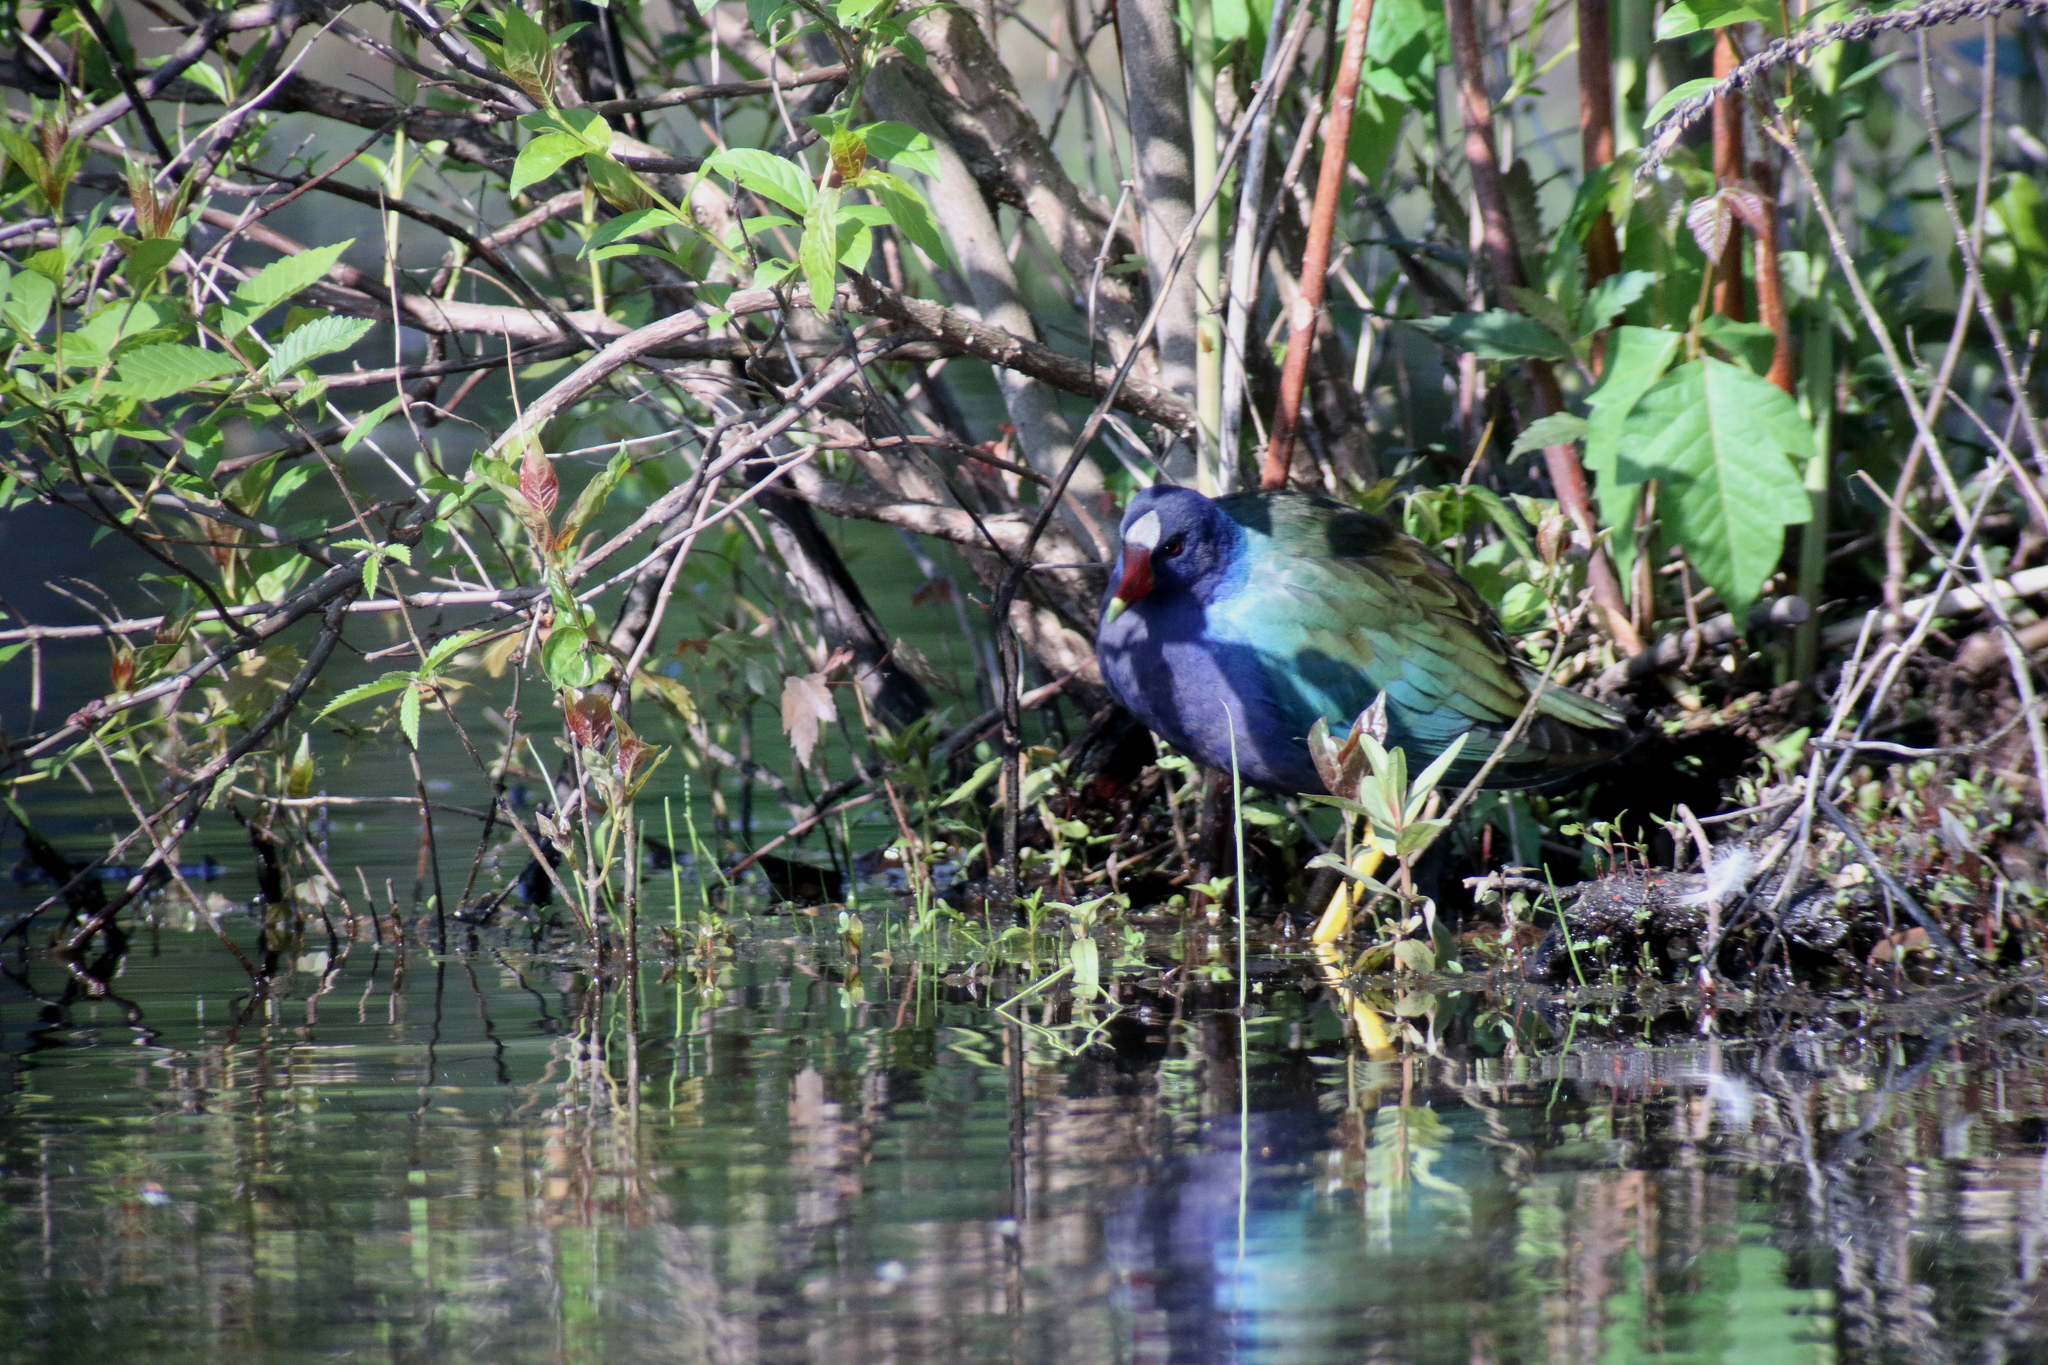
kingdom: Animalia
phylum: Chordata
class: Aves
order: Gruiformes
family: Rallidae
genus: Porphyrio
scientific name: Porphyrio martinica
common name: Purple gallinule
